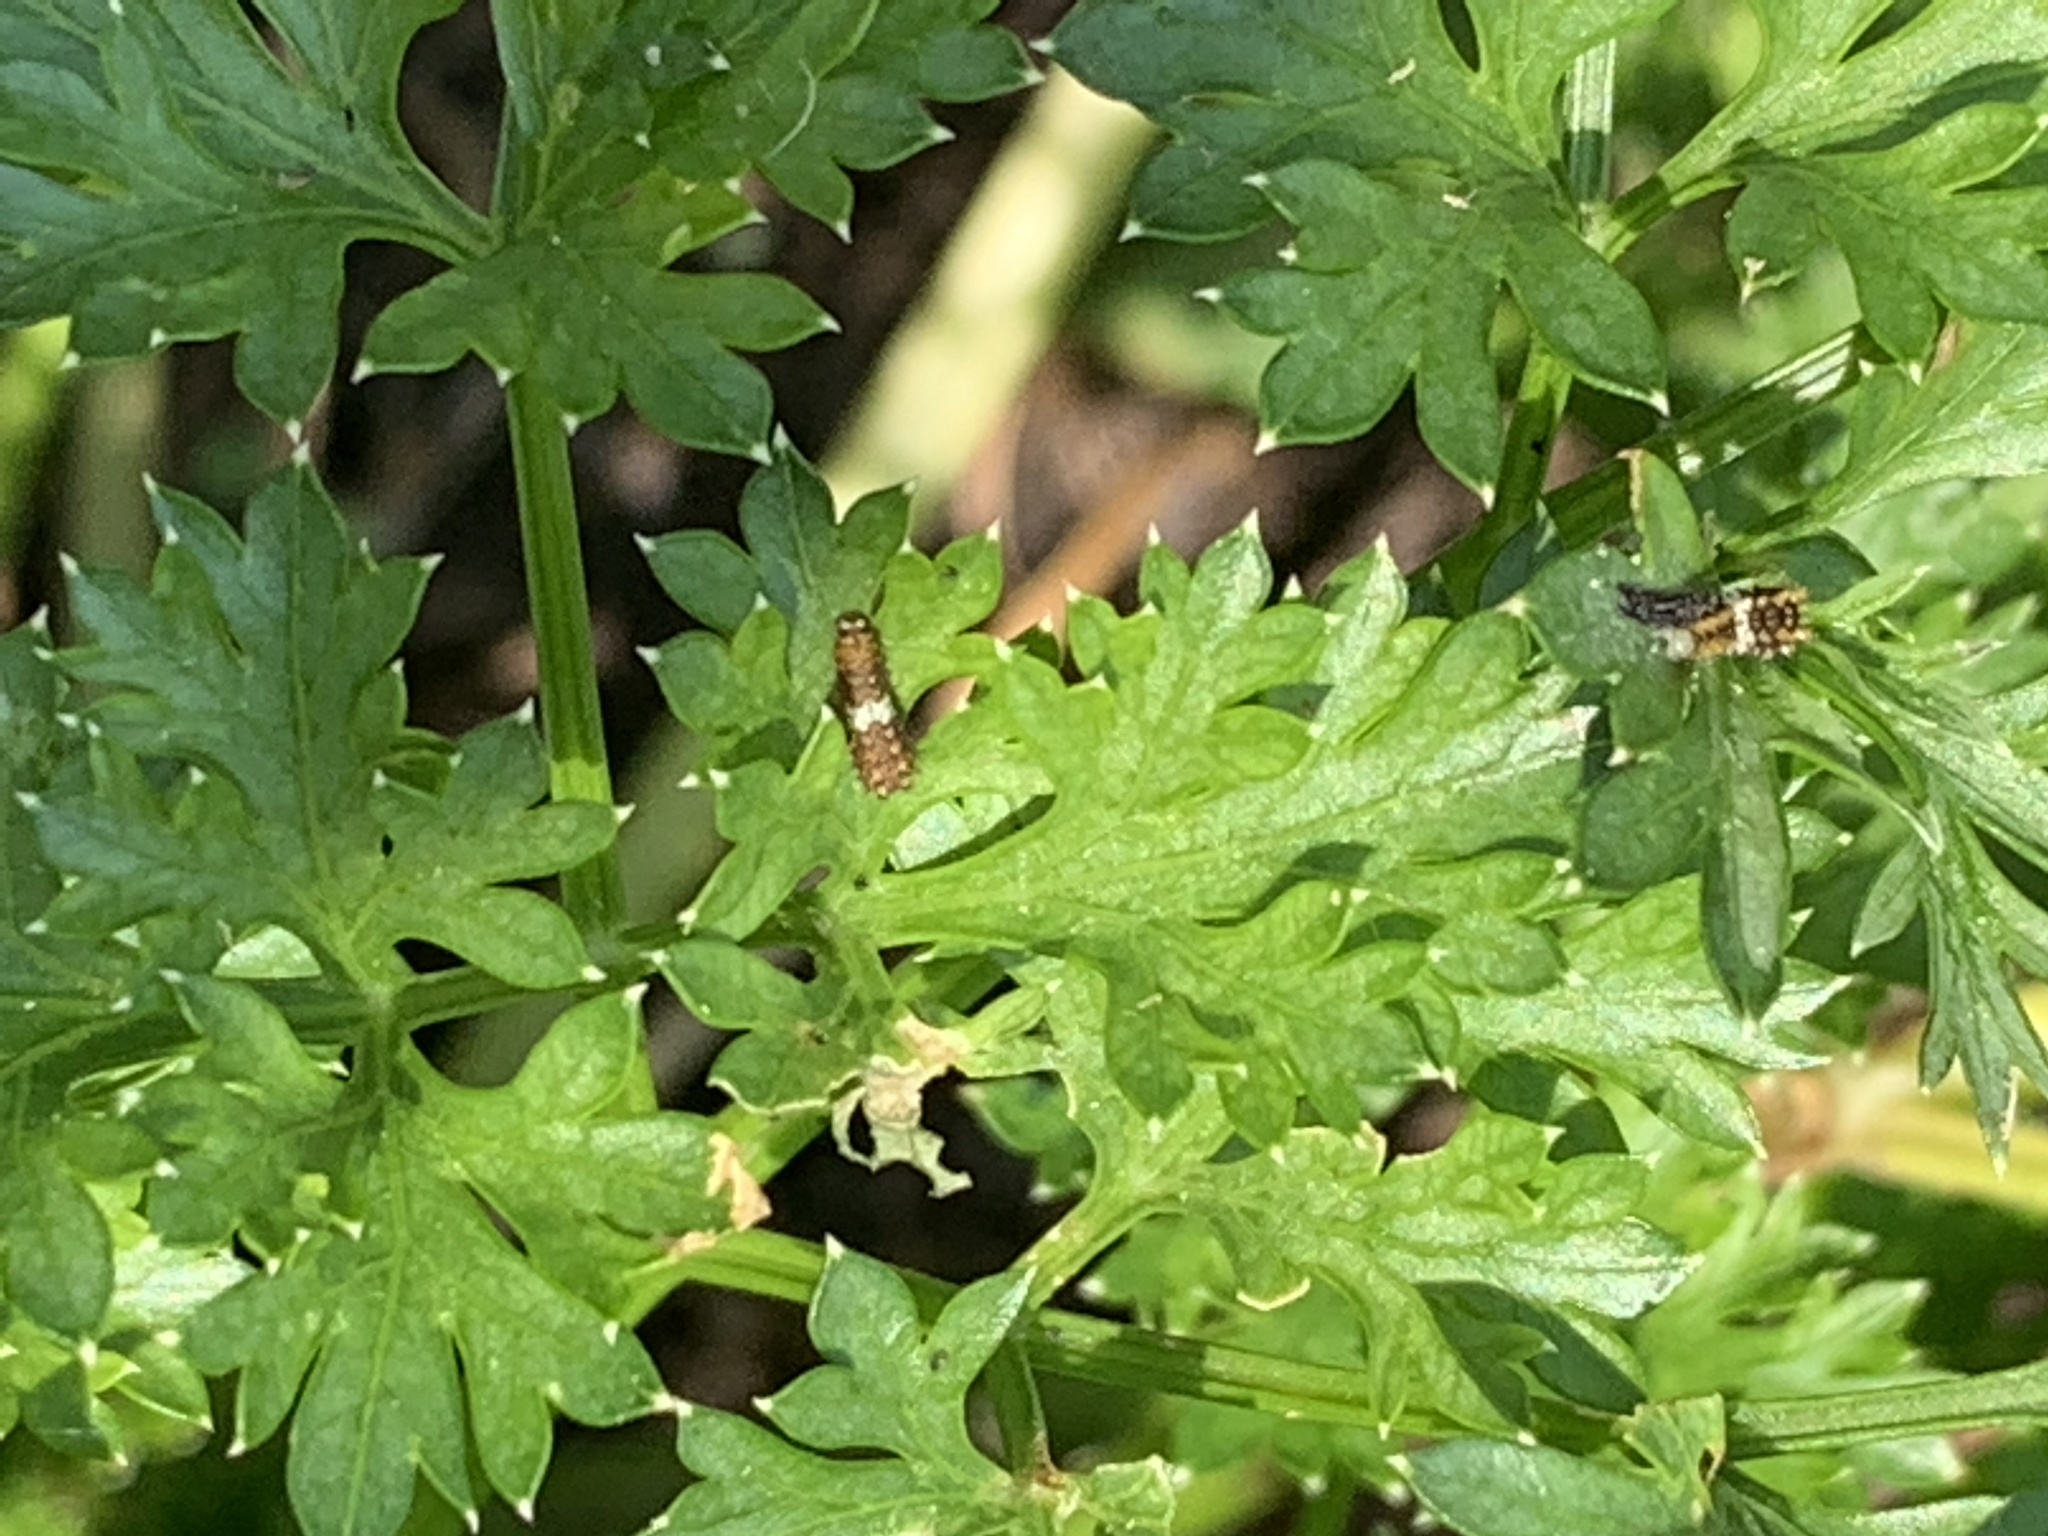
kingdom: Animalia
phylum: Arthropoda
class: Insecta
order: Lepidoptera
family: Papilionidae
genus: Papilio
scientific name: Papilio polyxenes
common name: Black swallowtail
